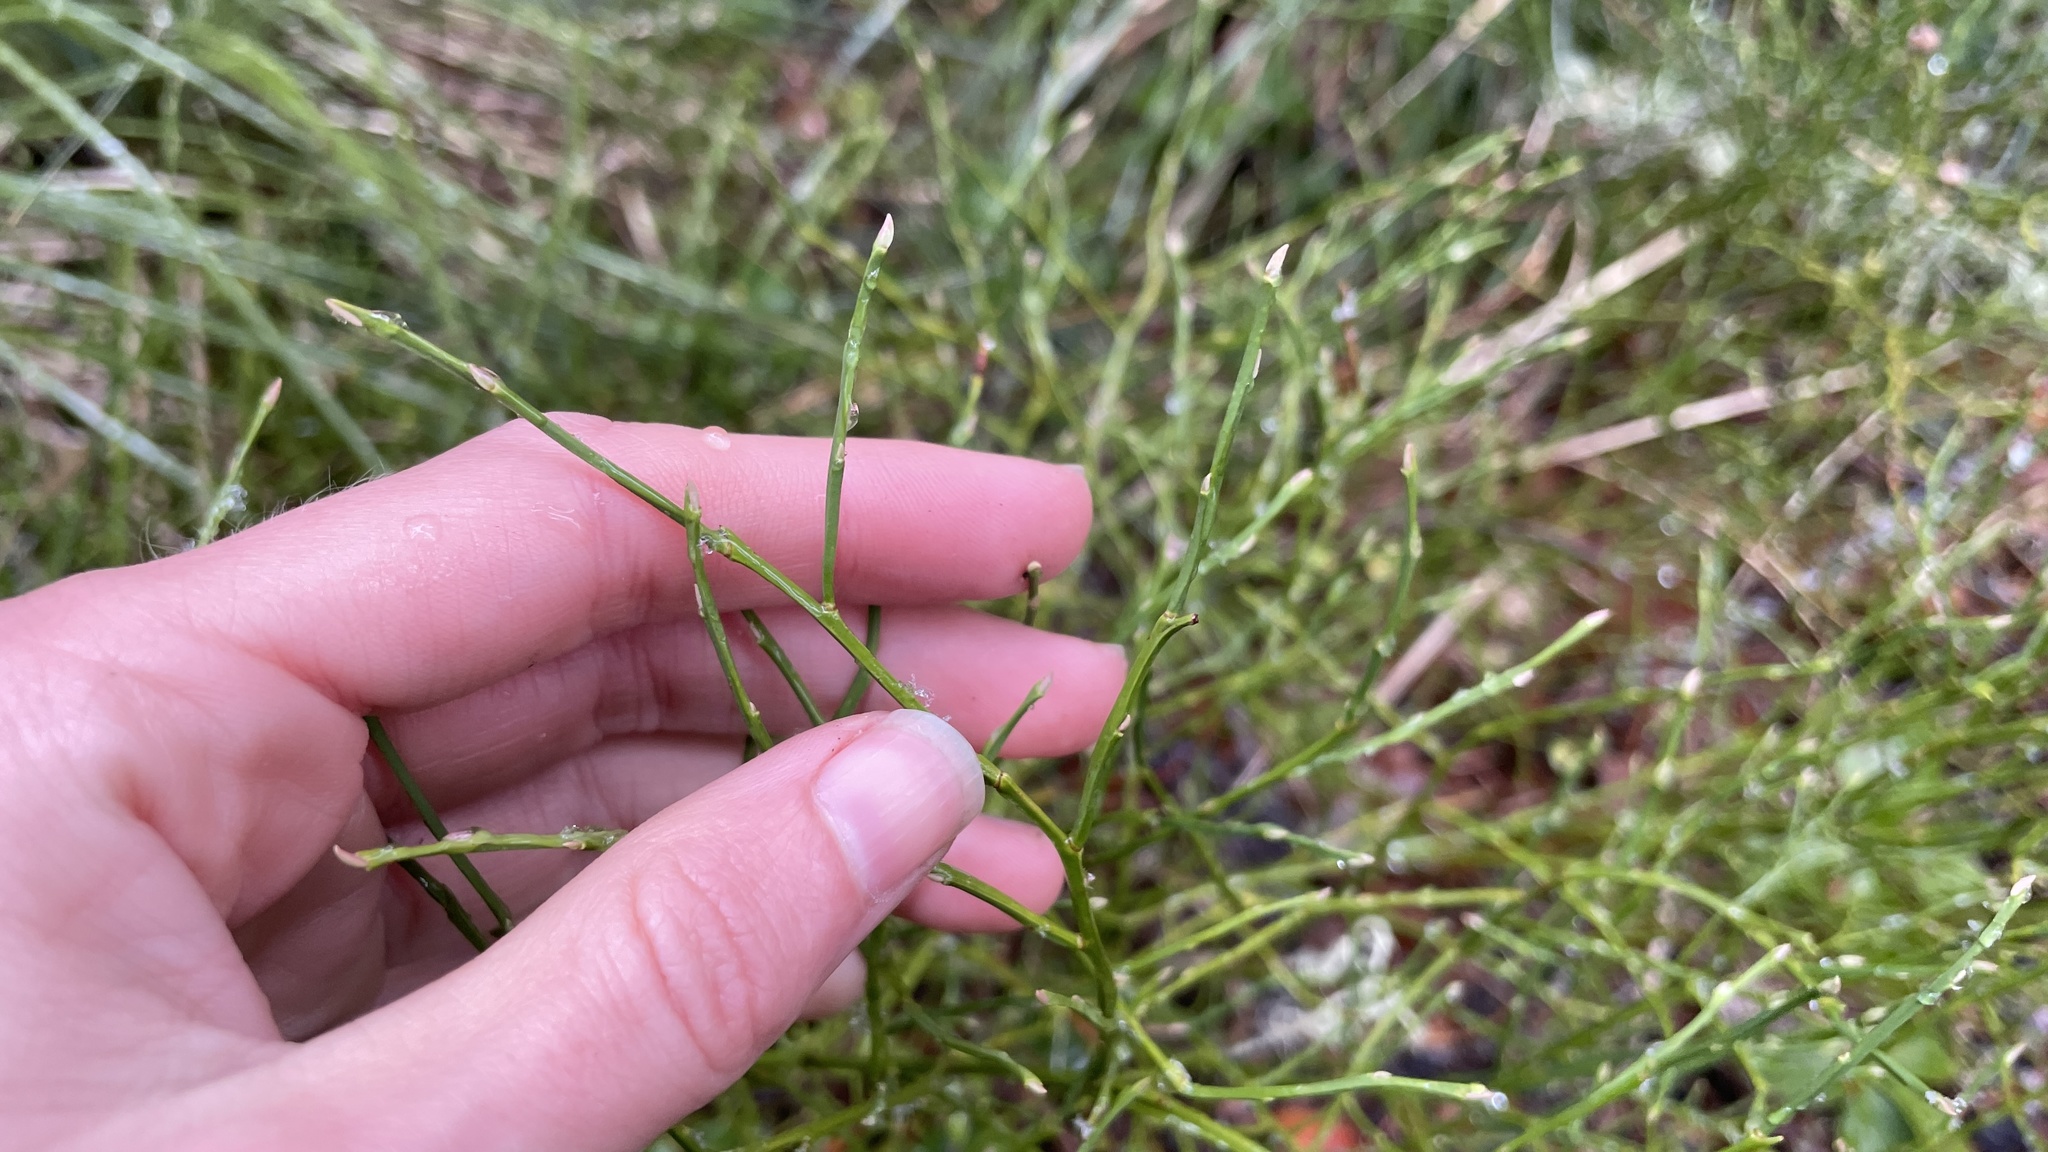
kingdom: Plantae
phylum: Tracheophyta
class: Magnoliopsida
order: Ericales
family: Ericaceae
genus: Vaccinium
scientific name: Vaccinium scoparium
